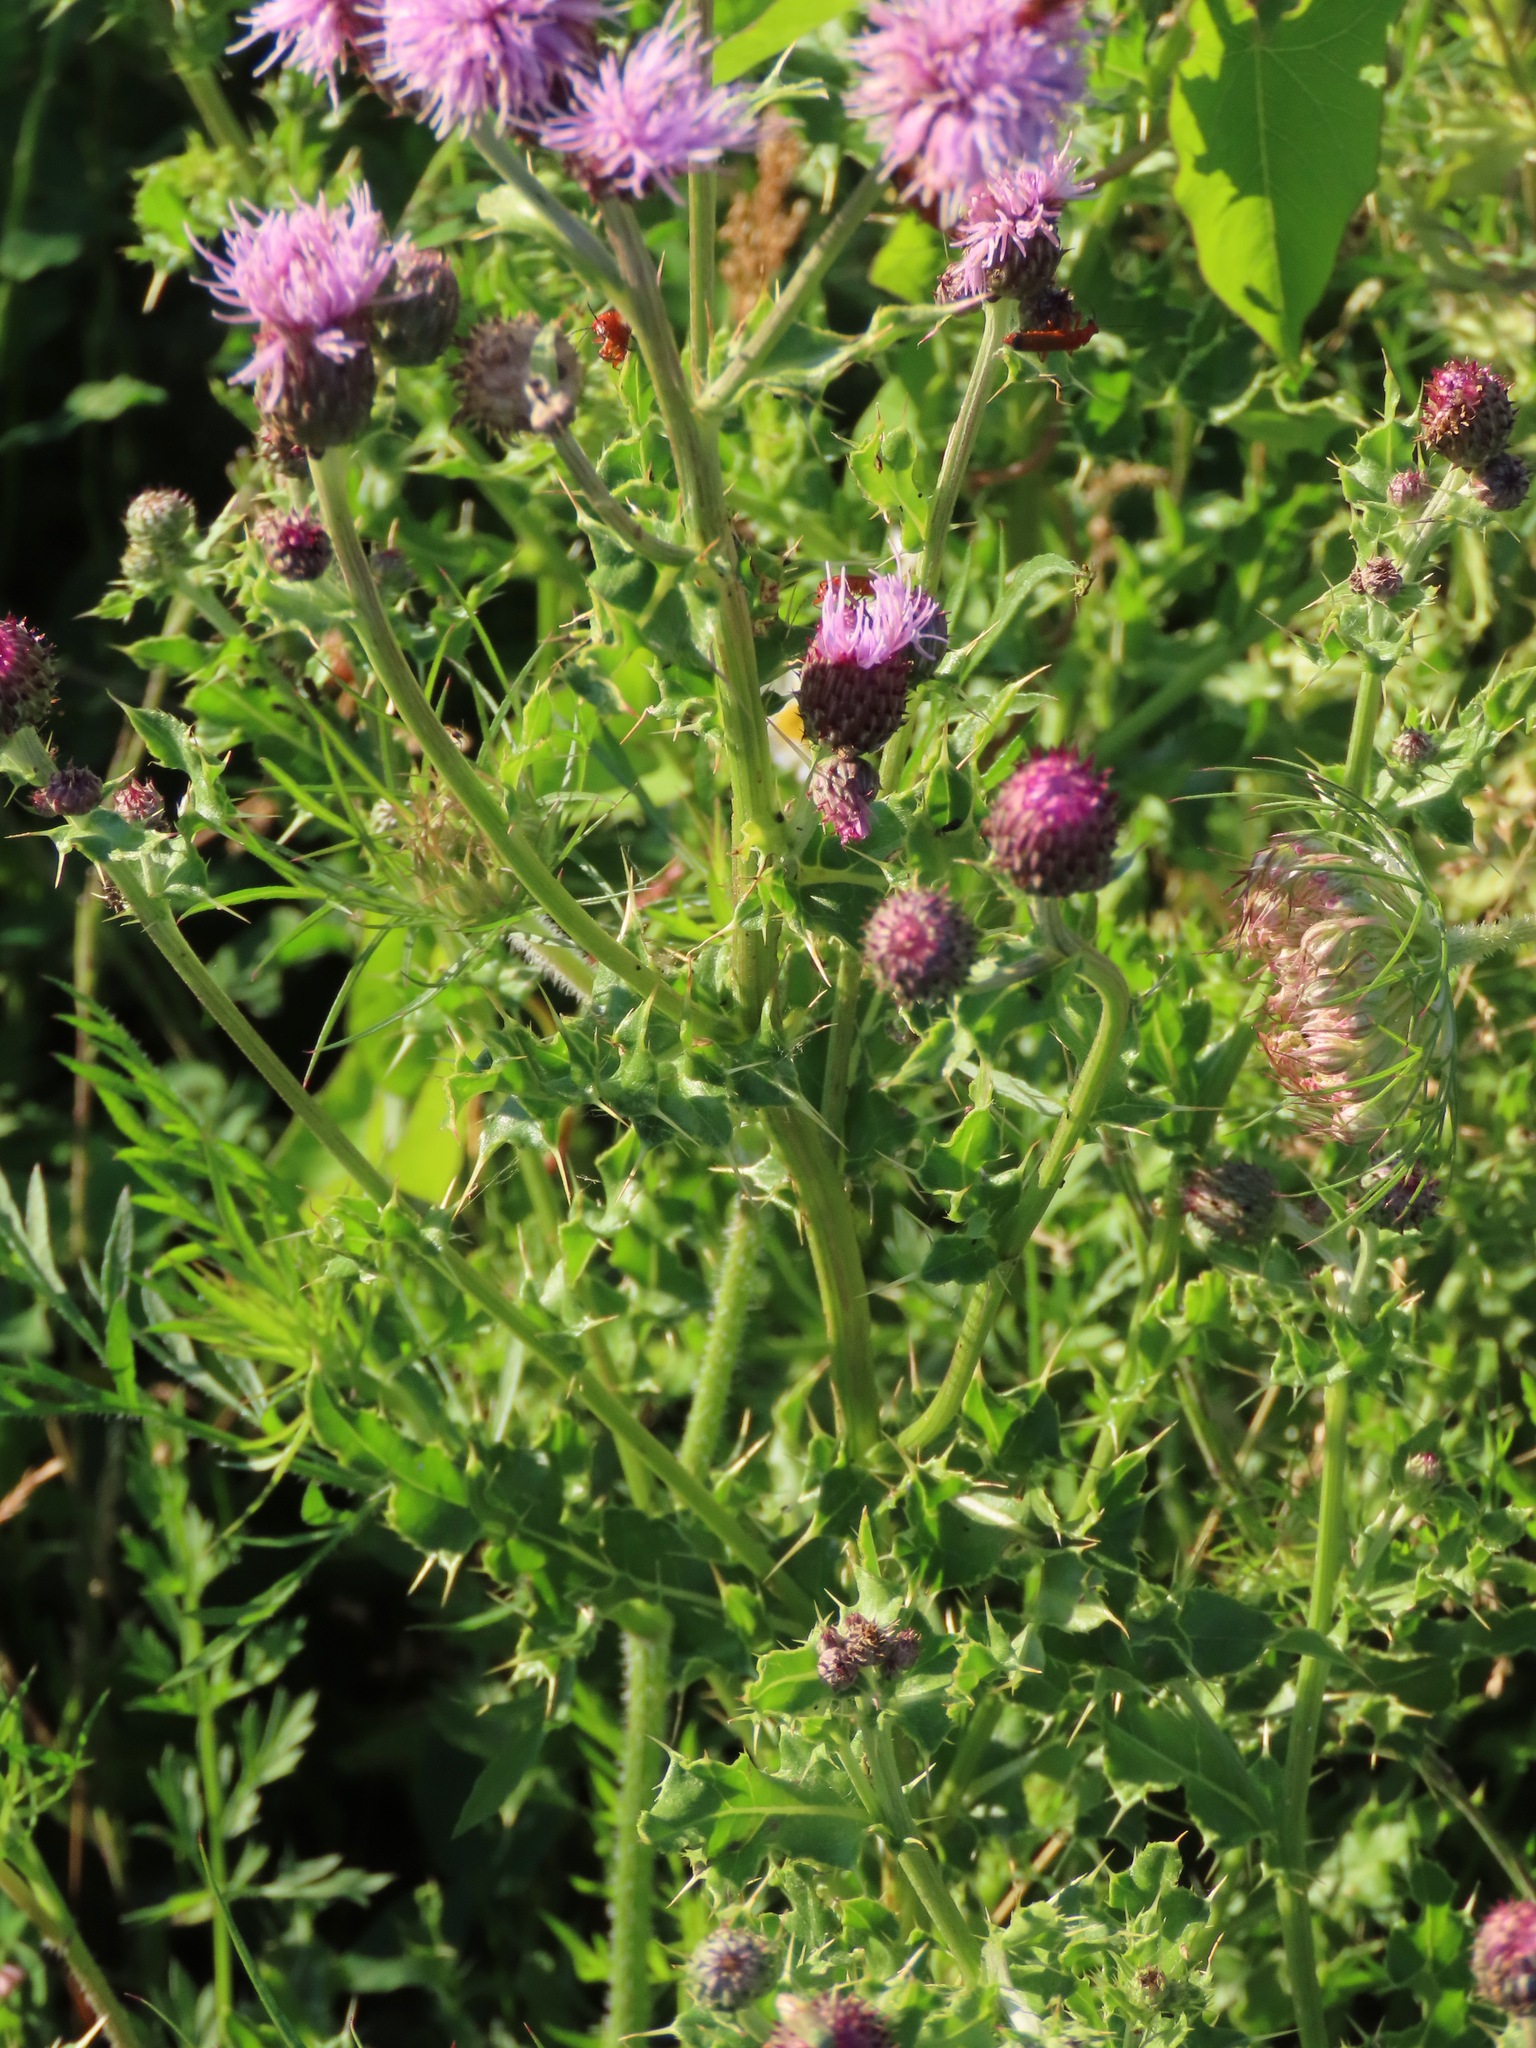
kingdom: Plantae
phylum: Tracheophyta
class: Magnoliopsida
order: Asterales
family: Asteraceae
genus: Cirsium
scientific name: Cirsium arvense
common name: Creeping thistle
